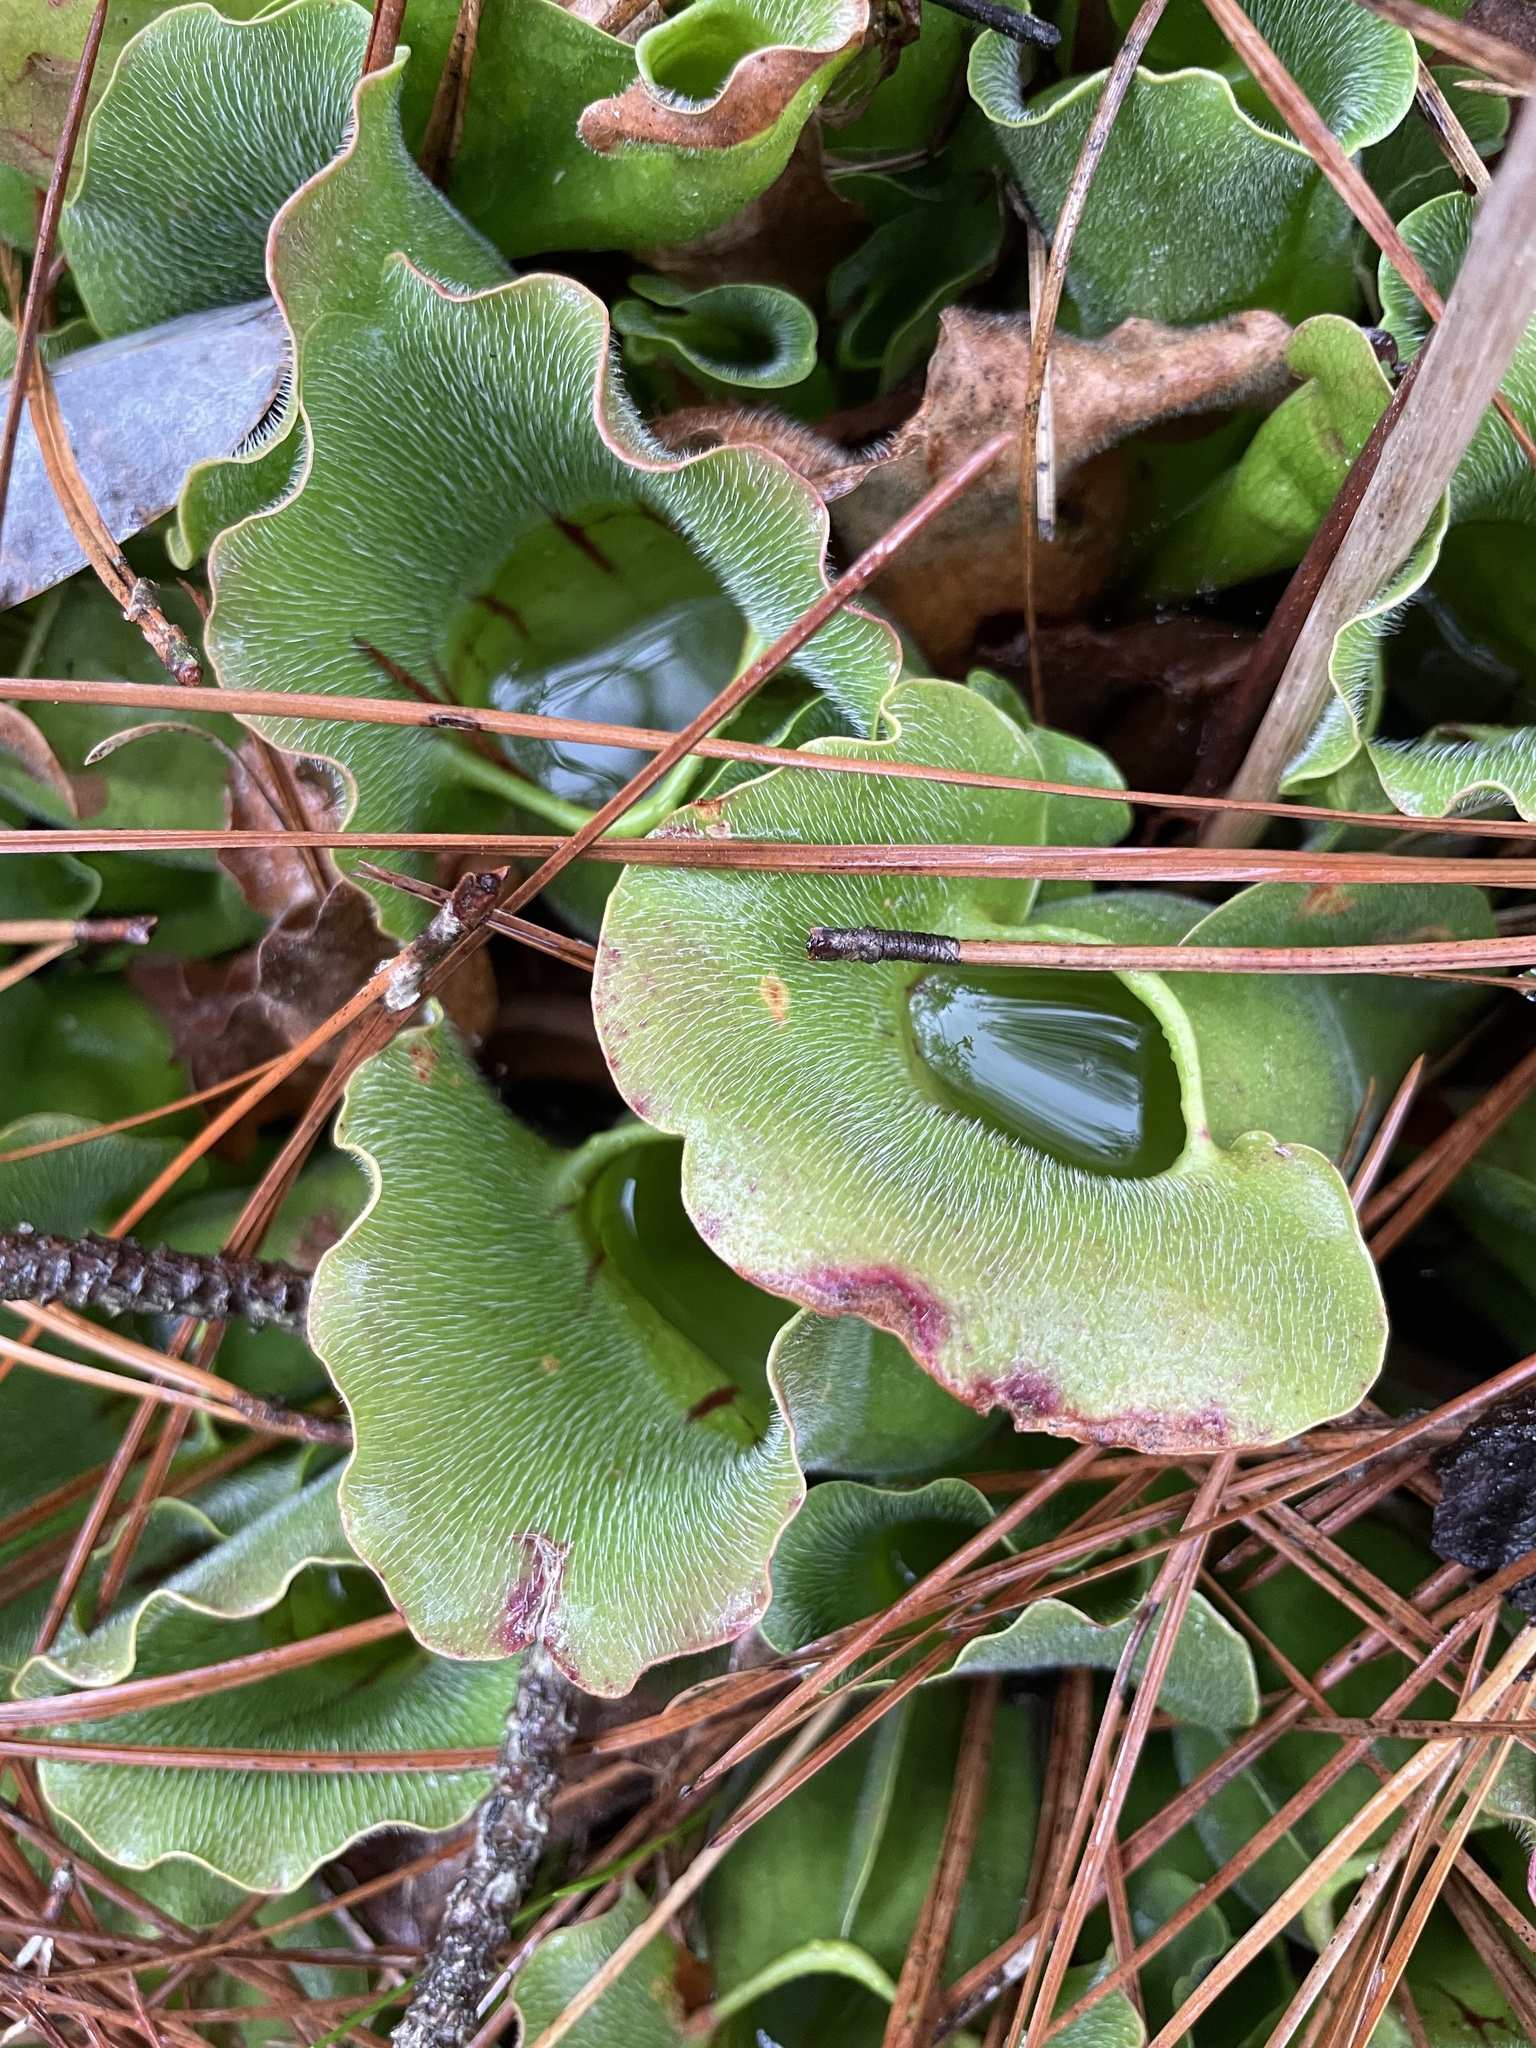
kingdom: Plantae
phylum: Tracheophyta
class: Magnoliopsida
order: Ericales
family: Sarraceniaceae
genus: Sarracenia
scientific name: Sarracenia purpurea
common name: Pitcherplant
